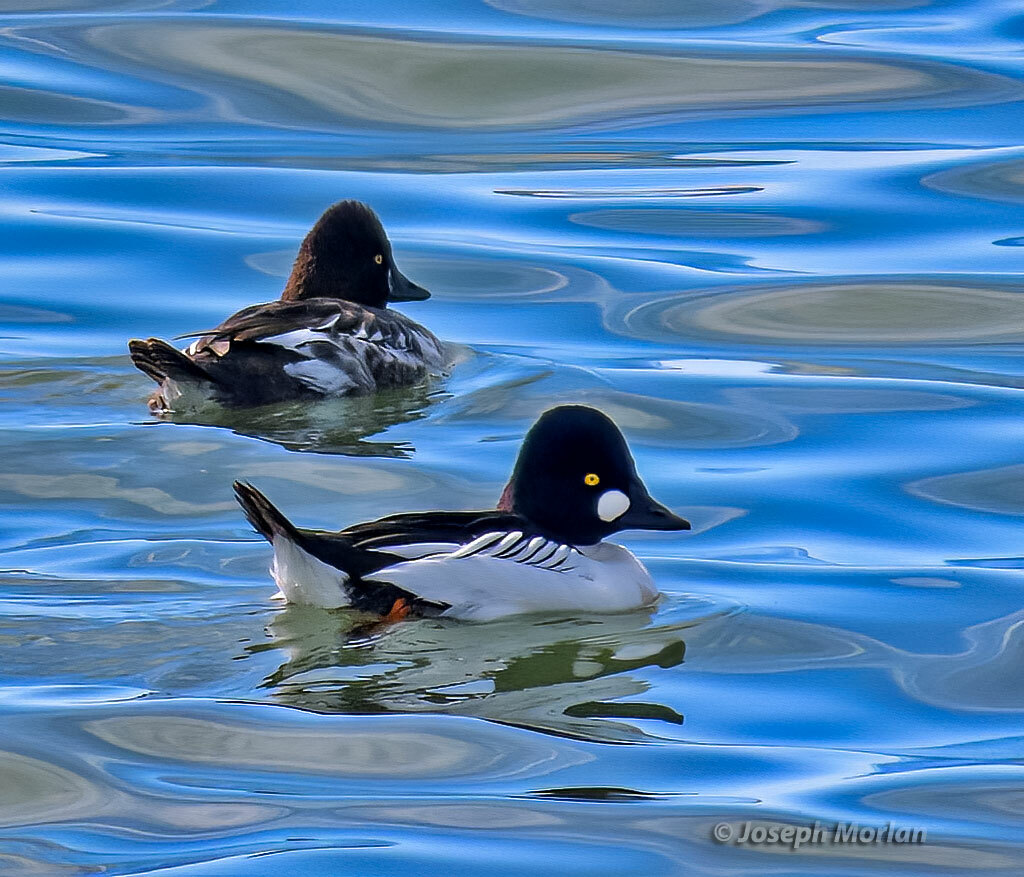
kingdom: Animalia
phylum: Chordata
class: Aves
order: Anseriformes
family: Anatidae
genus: Bucephala
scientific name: Bucephala clangula
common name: Common goldeneye
